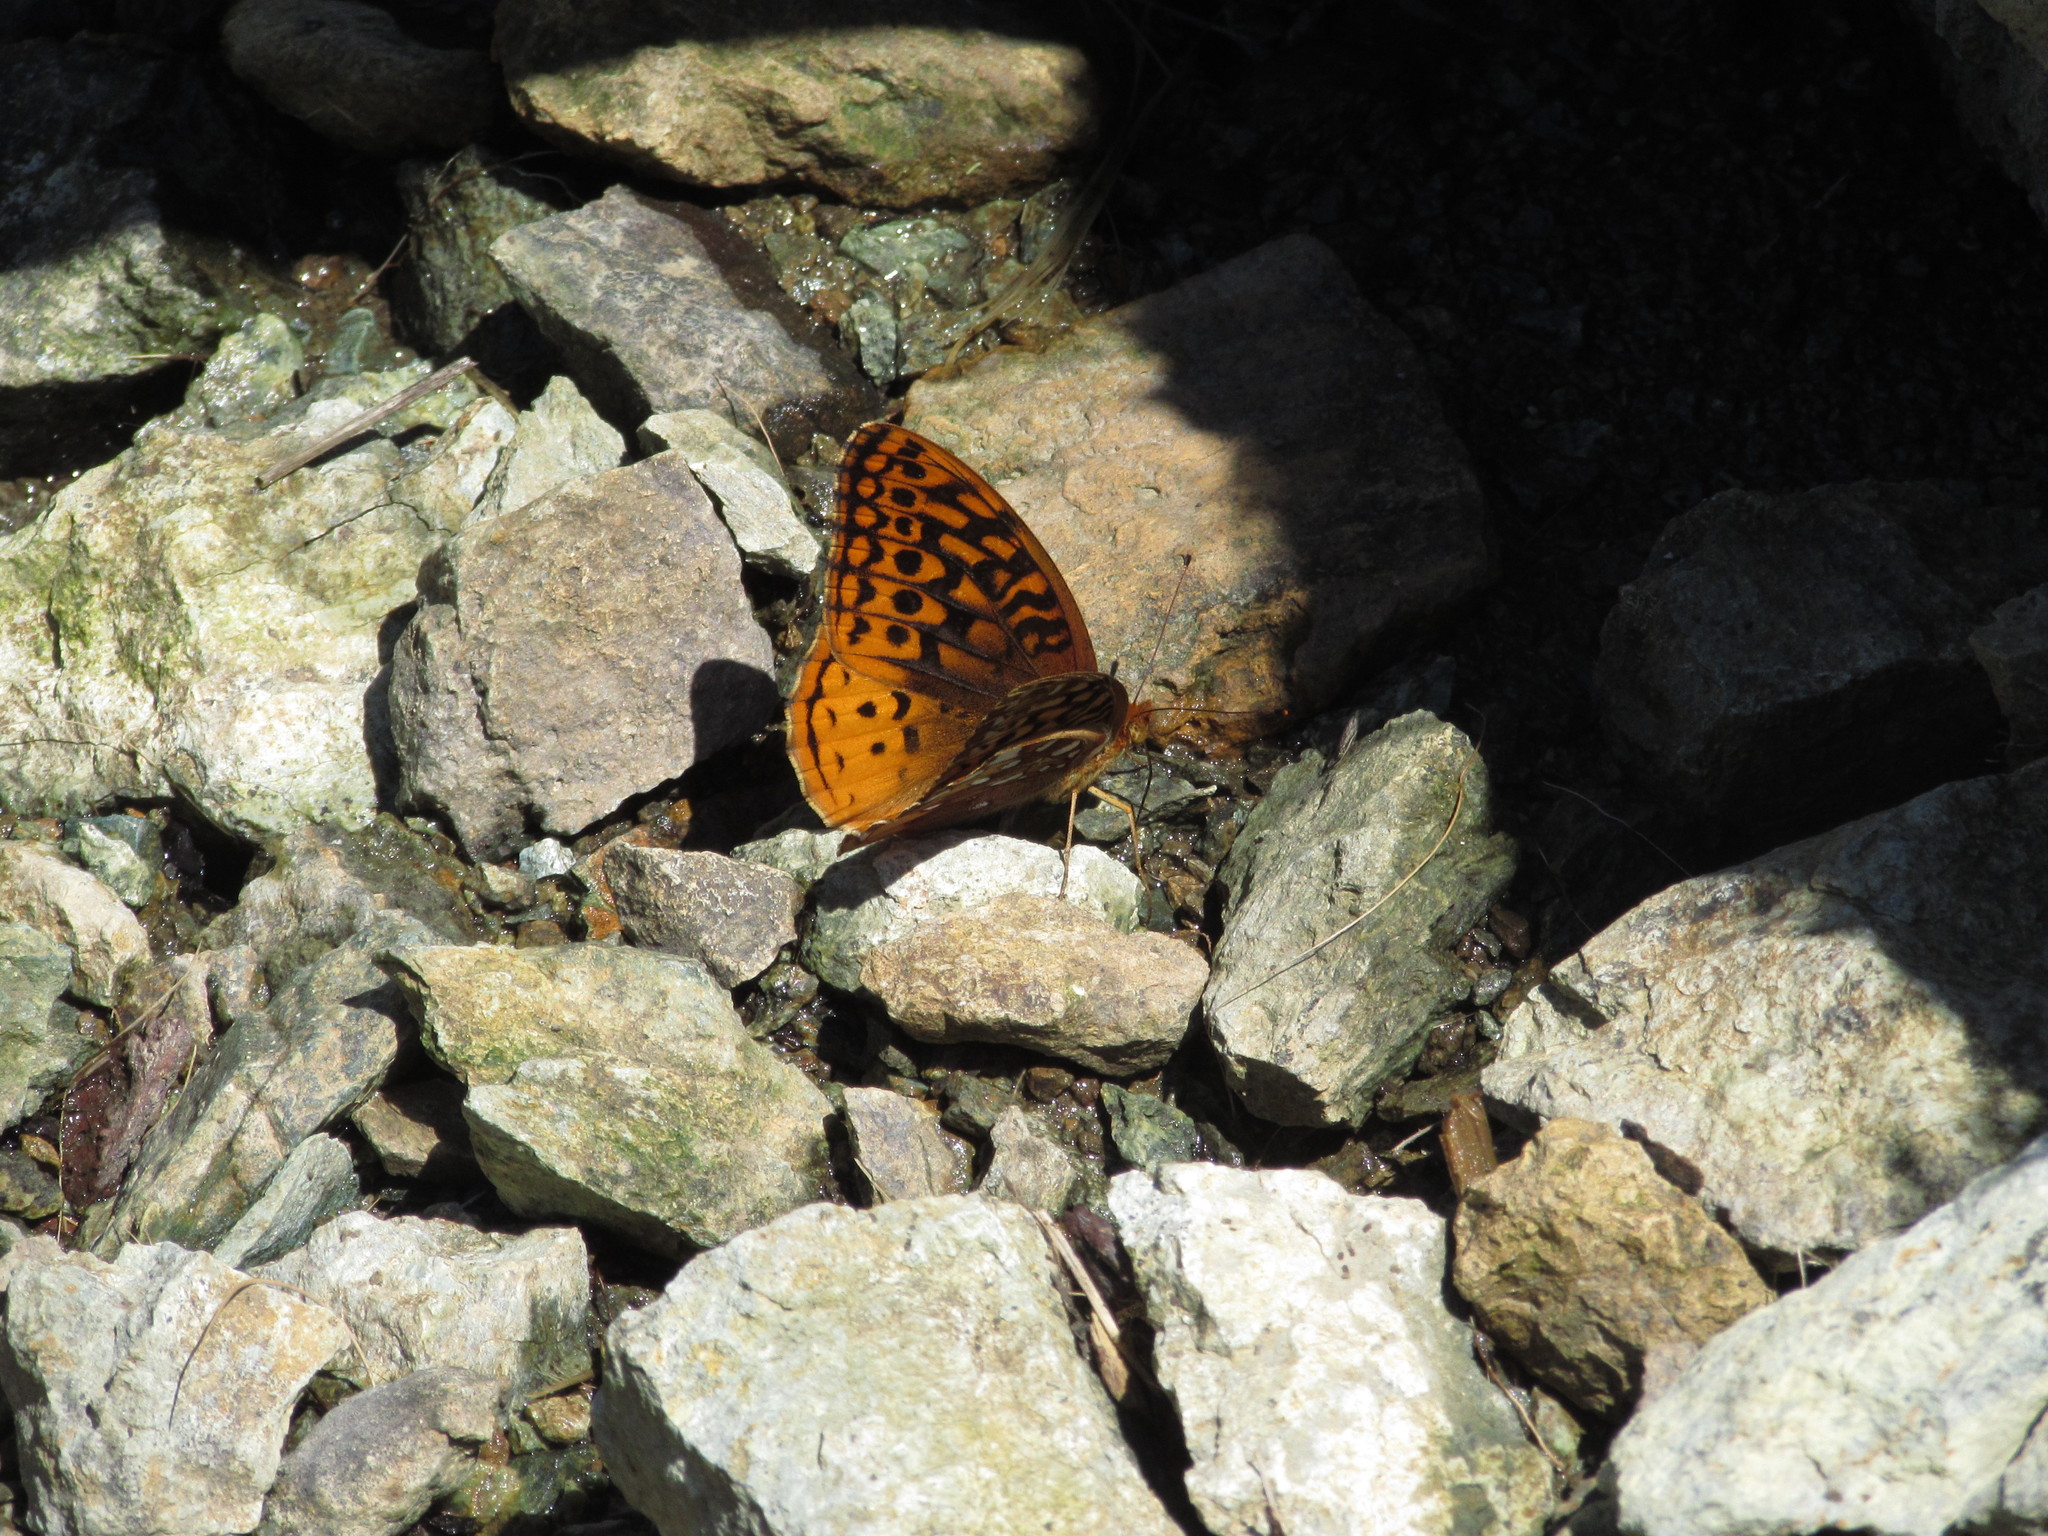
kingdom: Animalia
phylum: Arthropoda
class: Insecta
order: Lepidoptera
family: Nymphalidae
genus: Speyeria
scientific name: Speyeria cybele
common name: Great spangled fritillary
